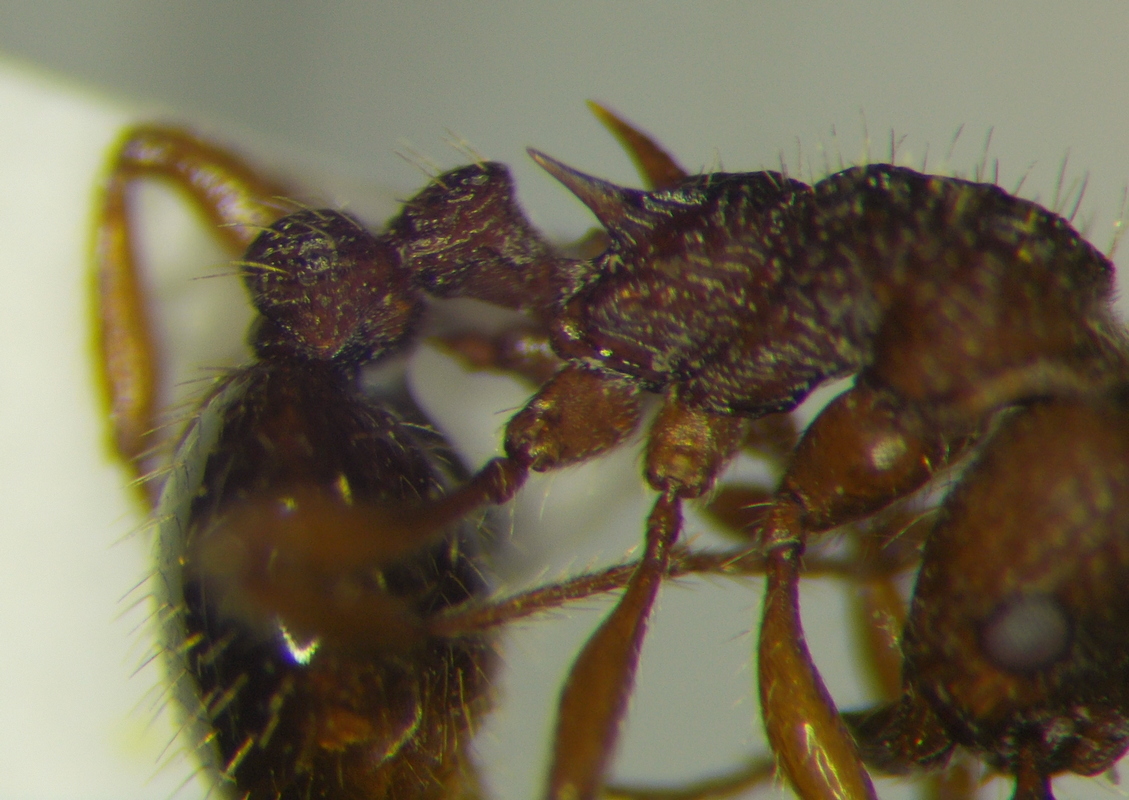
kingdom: Animalia
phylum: Arthropoda
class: Insecta
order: Hymenoptera
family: Formicidae
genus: Myrmica
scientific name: Myrmica specioides
